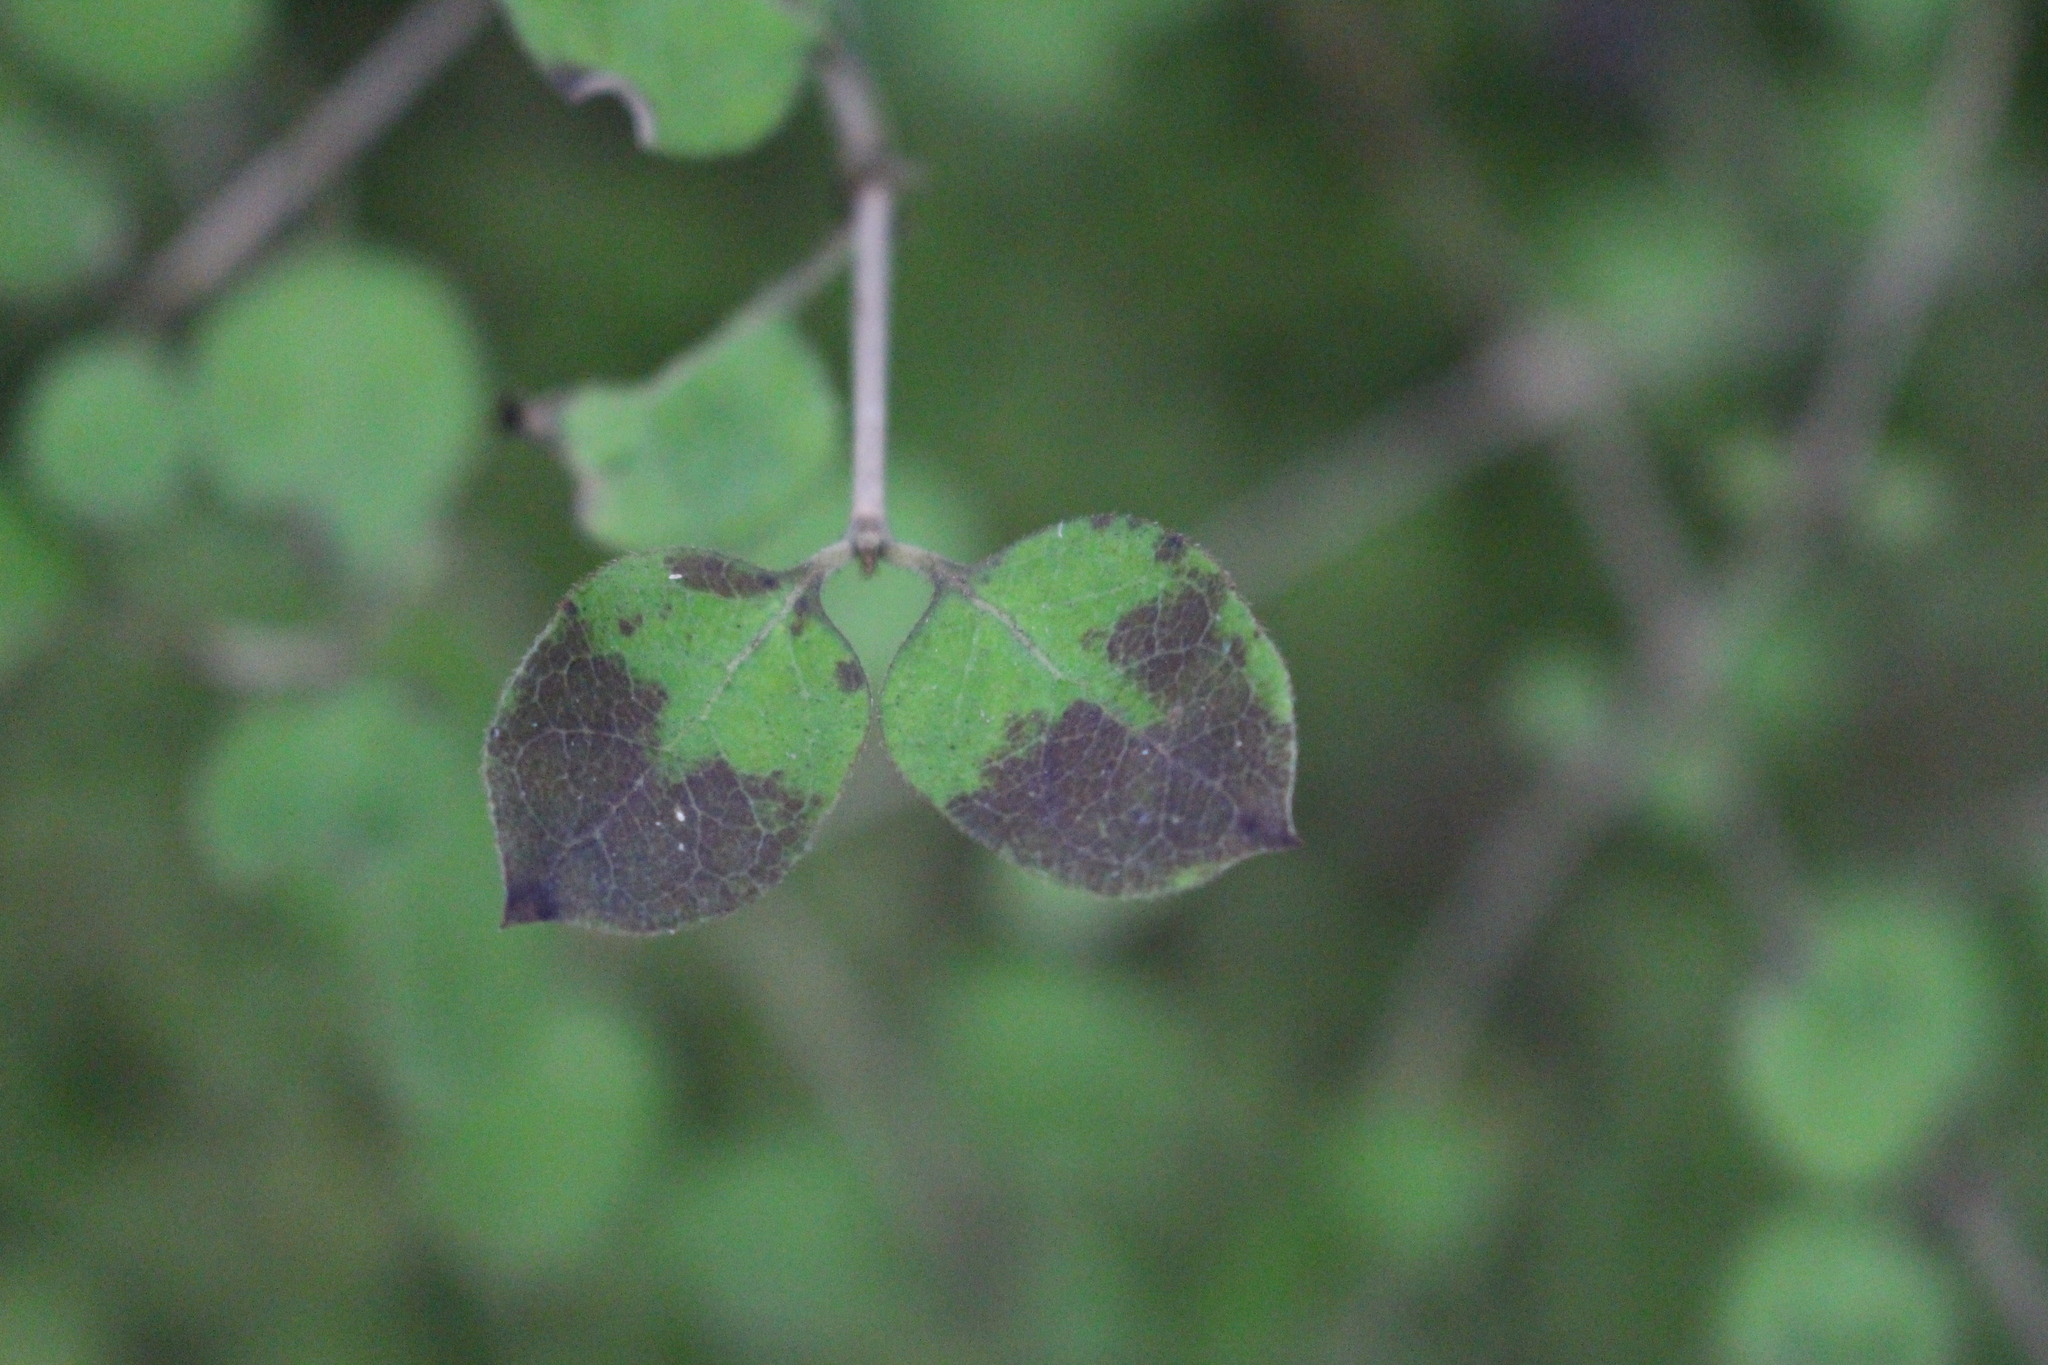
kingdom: Plantae
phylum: Tracheophyta
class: Magnoliopsida
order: Gentianales
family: Rubiaceae
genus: Coprosma
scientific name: Coprosma rotundifolia
